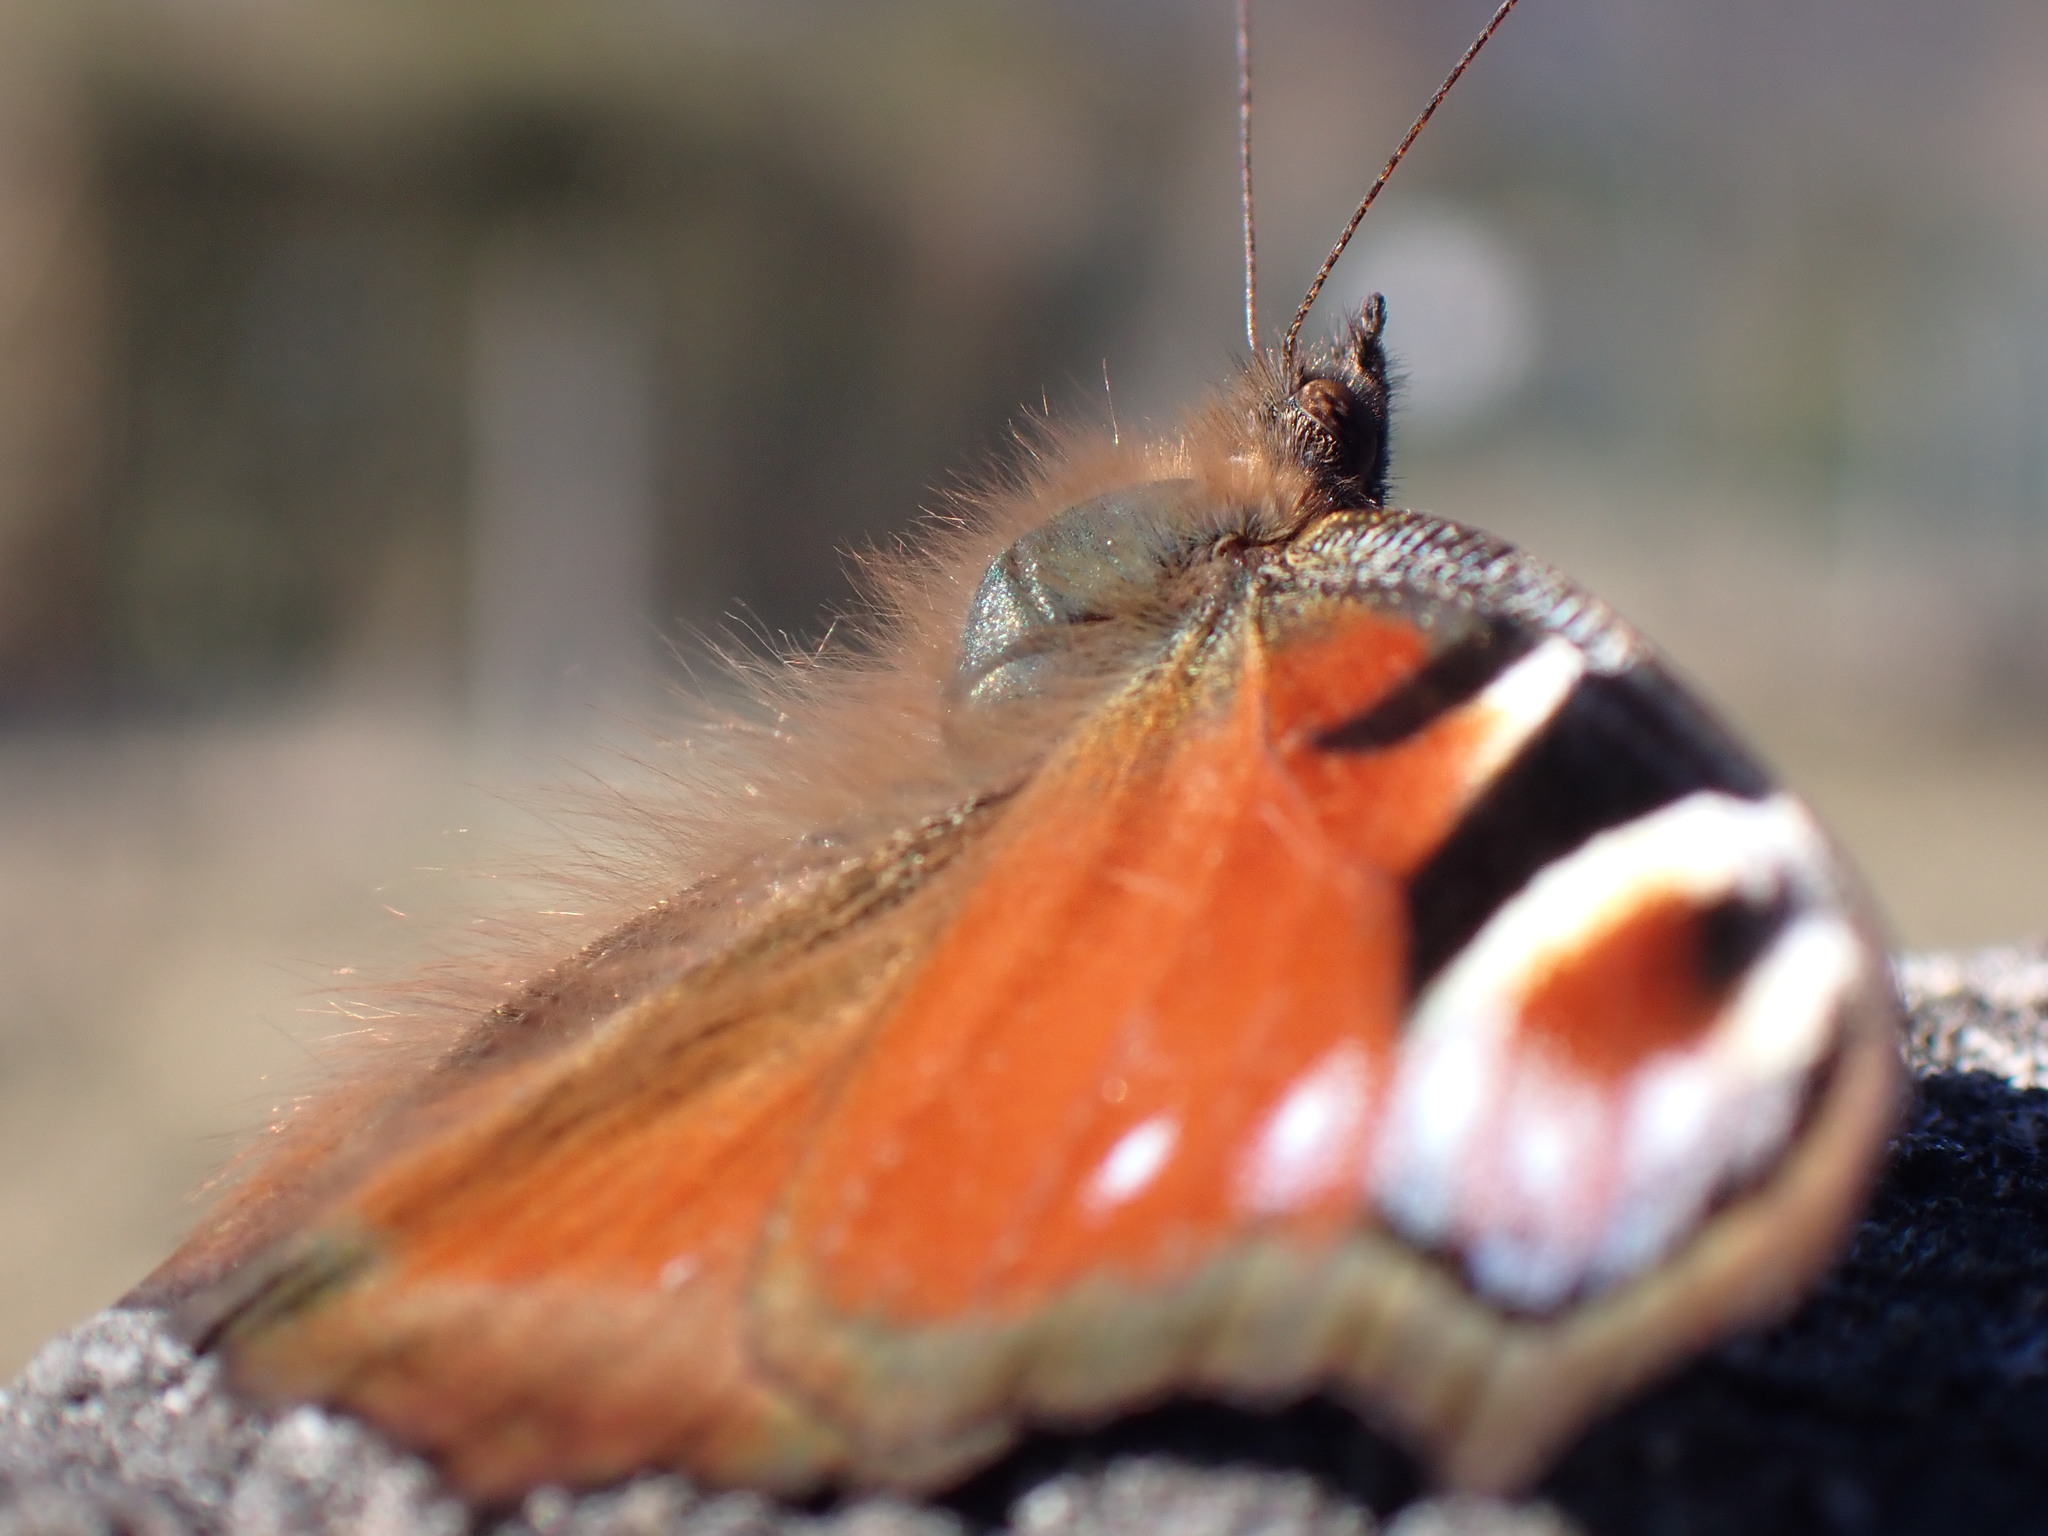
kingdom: Animalia
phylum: Arthropoda
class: Insecta
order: Lepidoptera
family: Nymphalidae
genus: Aglais
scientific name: Aglais io
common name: Peacock
